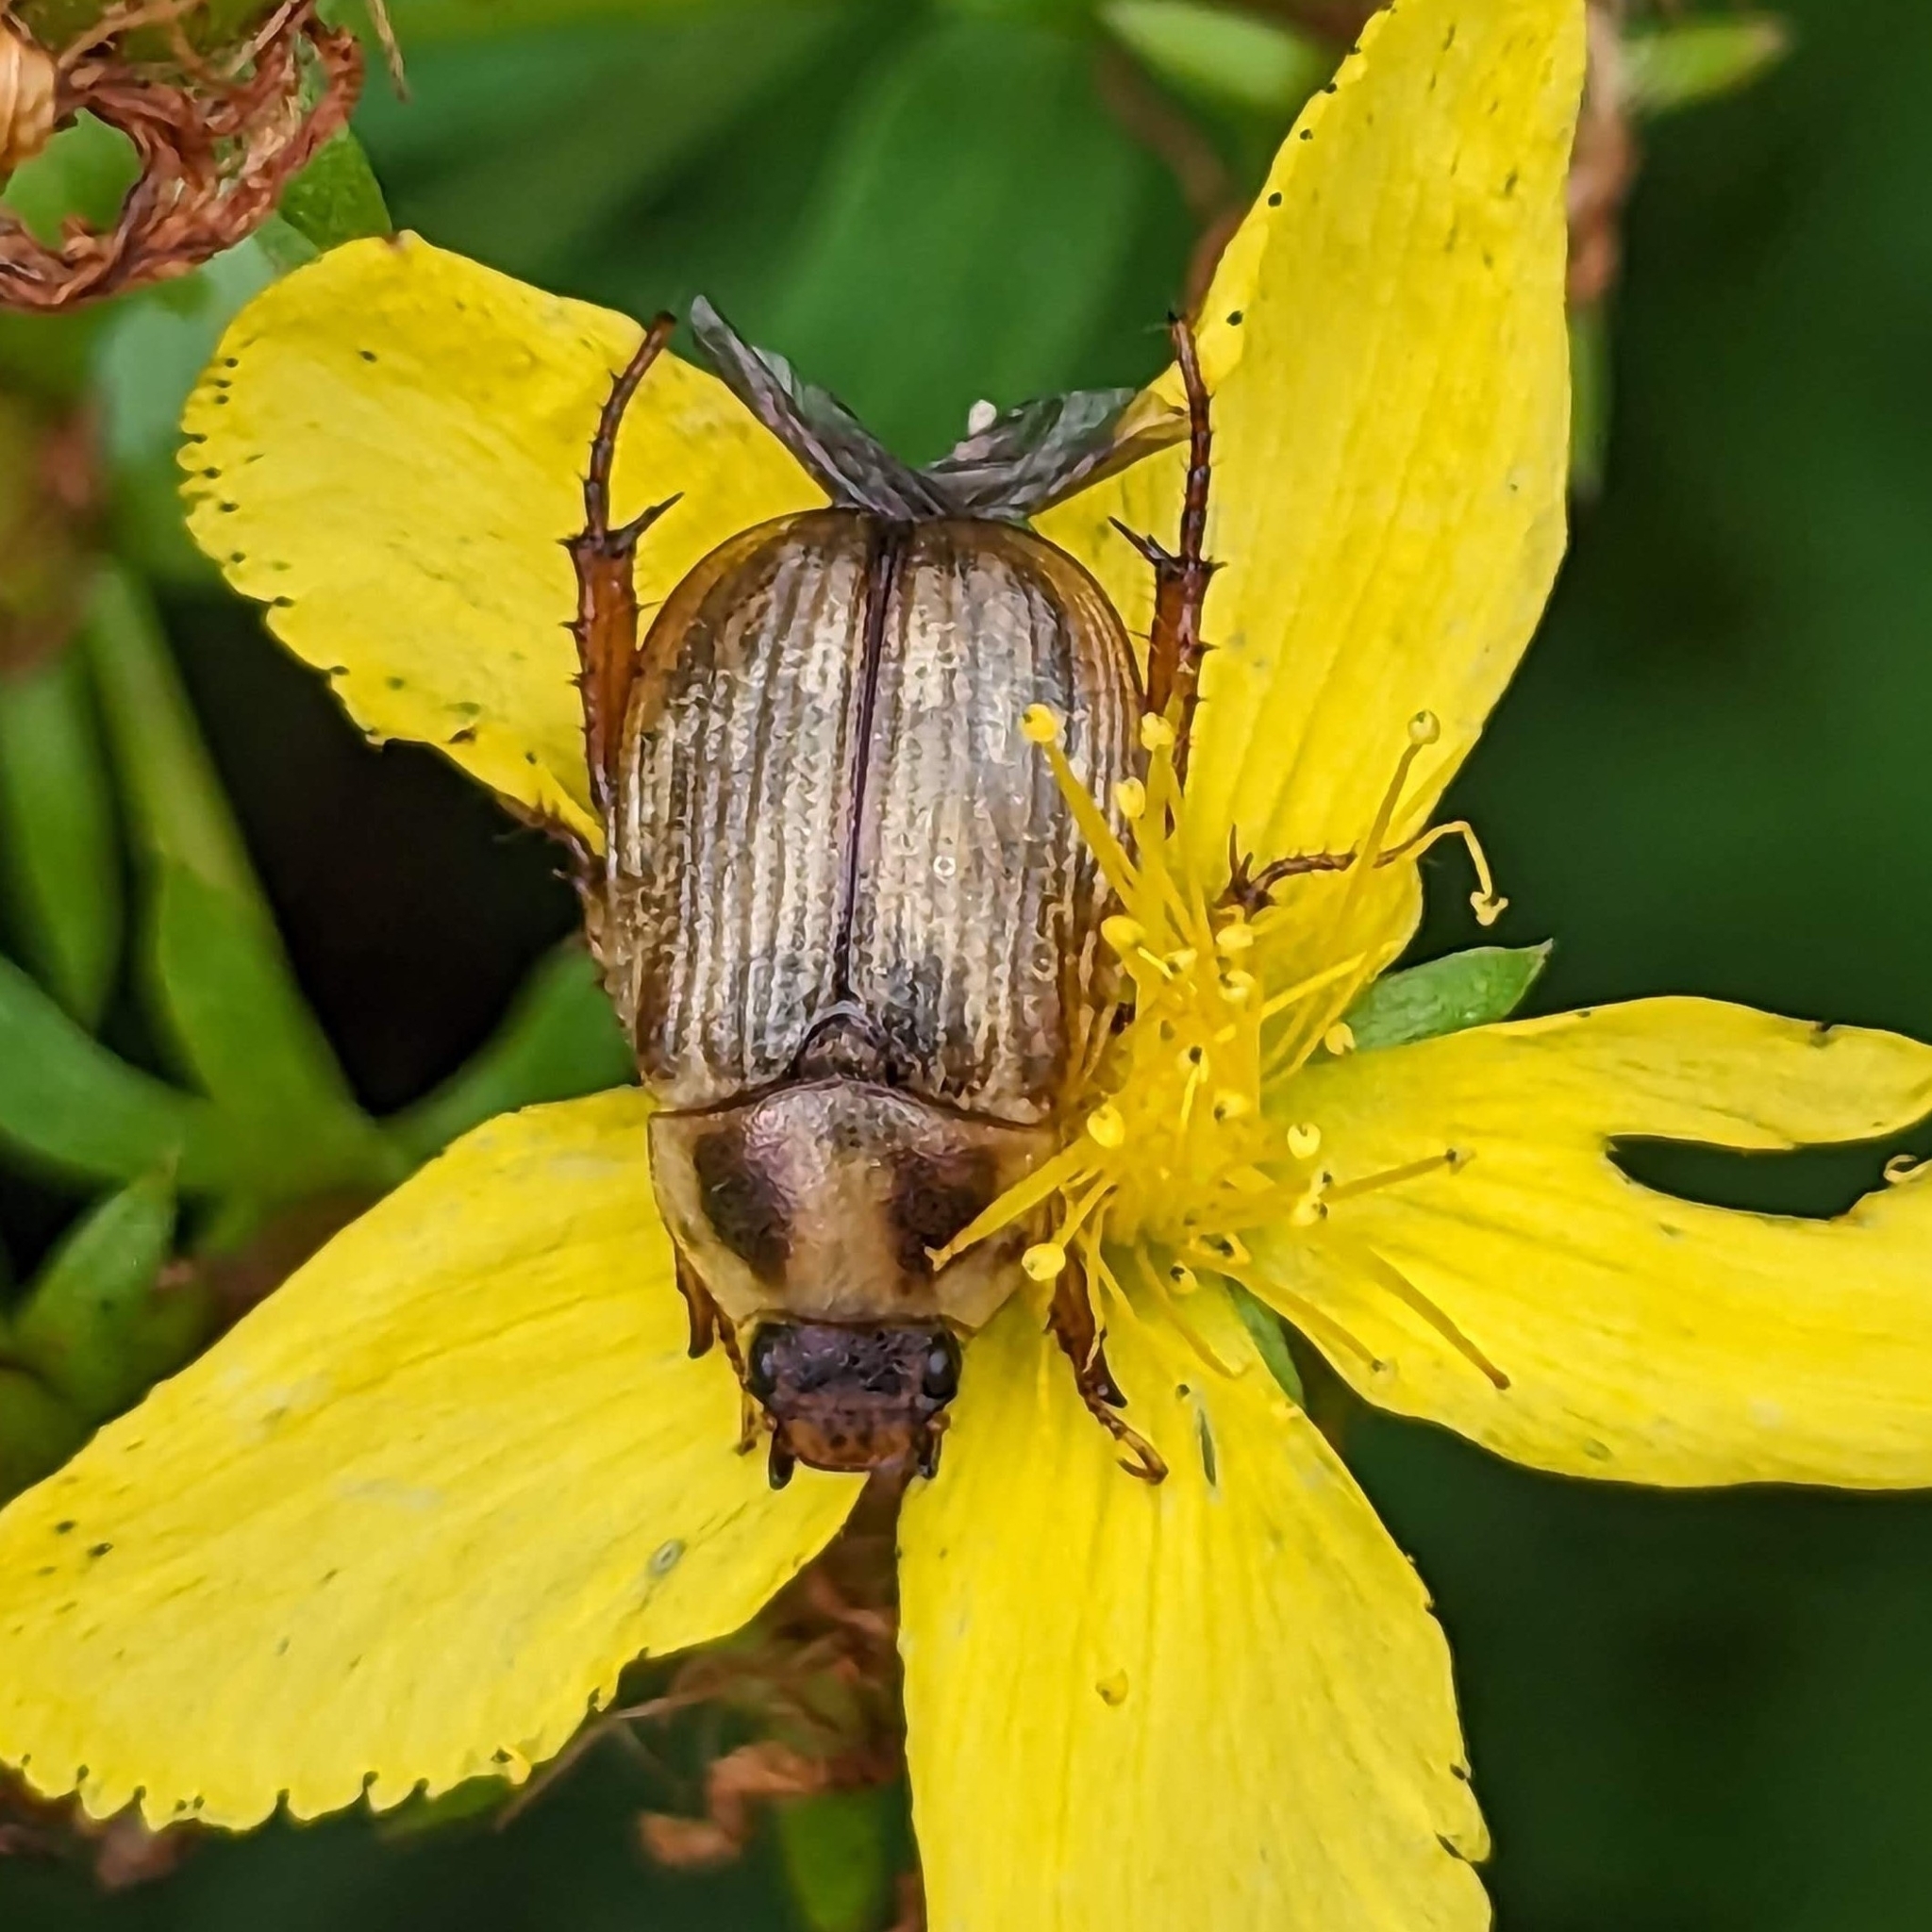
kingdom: Animalia
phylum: Arthropoda
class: Insecta
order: Coleoptera
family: Scarabaeidae
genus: Exomala
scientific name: Exomala orientalis
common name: Oriental beetle
